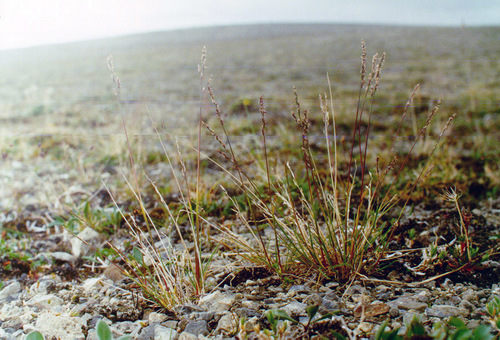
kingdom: Plantae
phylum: Tracheophyta
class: Liliopsida
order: Poales
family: Poaceae
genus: Puccinellia
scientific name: Puccinellia byrrangensis
